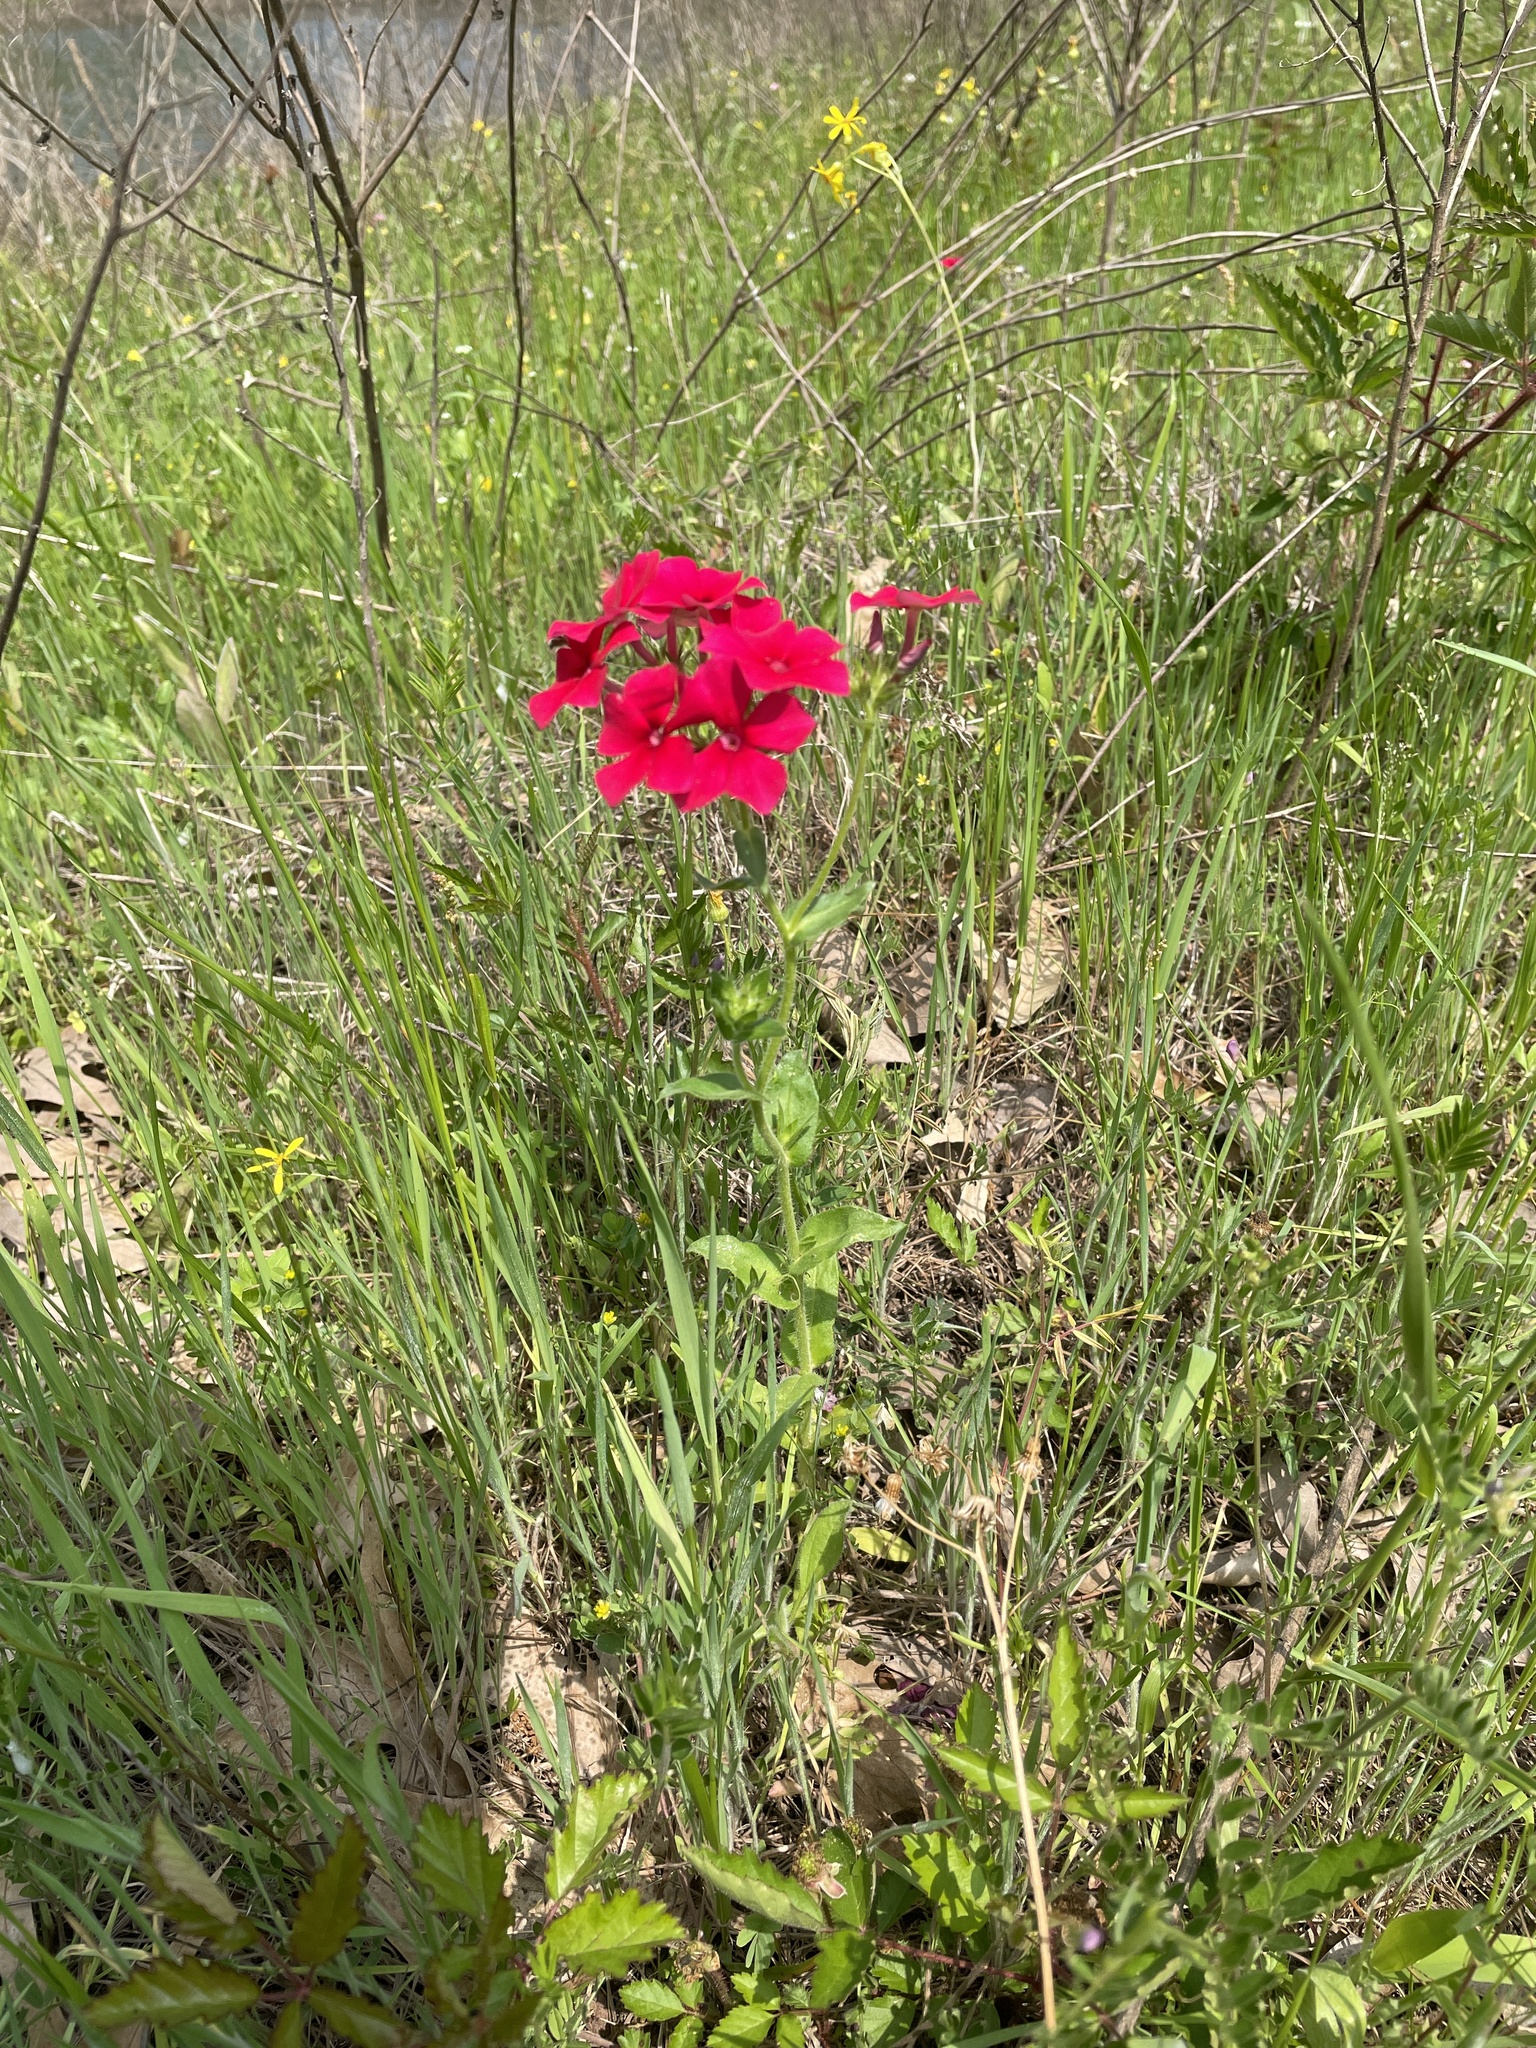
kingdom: Plantae
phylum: Tracheophyta
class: Magnoliopsida
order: Ericales
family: Polemoniaceae
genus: Phlox
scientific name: Phlox drummondii
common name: Drummond's phlox
